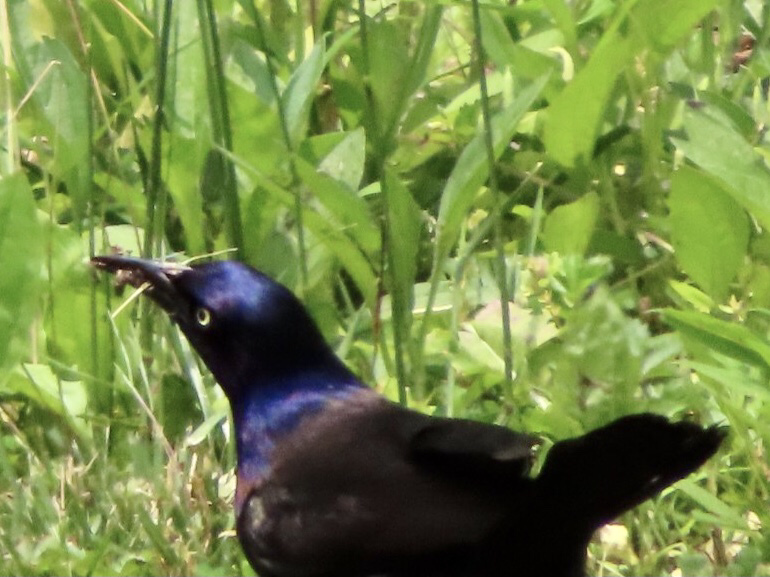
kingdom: Animalia
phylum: Chordata
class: Aves
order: Passeriformes
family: Icteridae
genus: Quiscalus
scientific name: Quiscalus quiscula
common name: Common grackle
